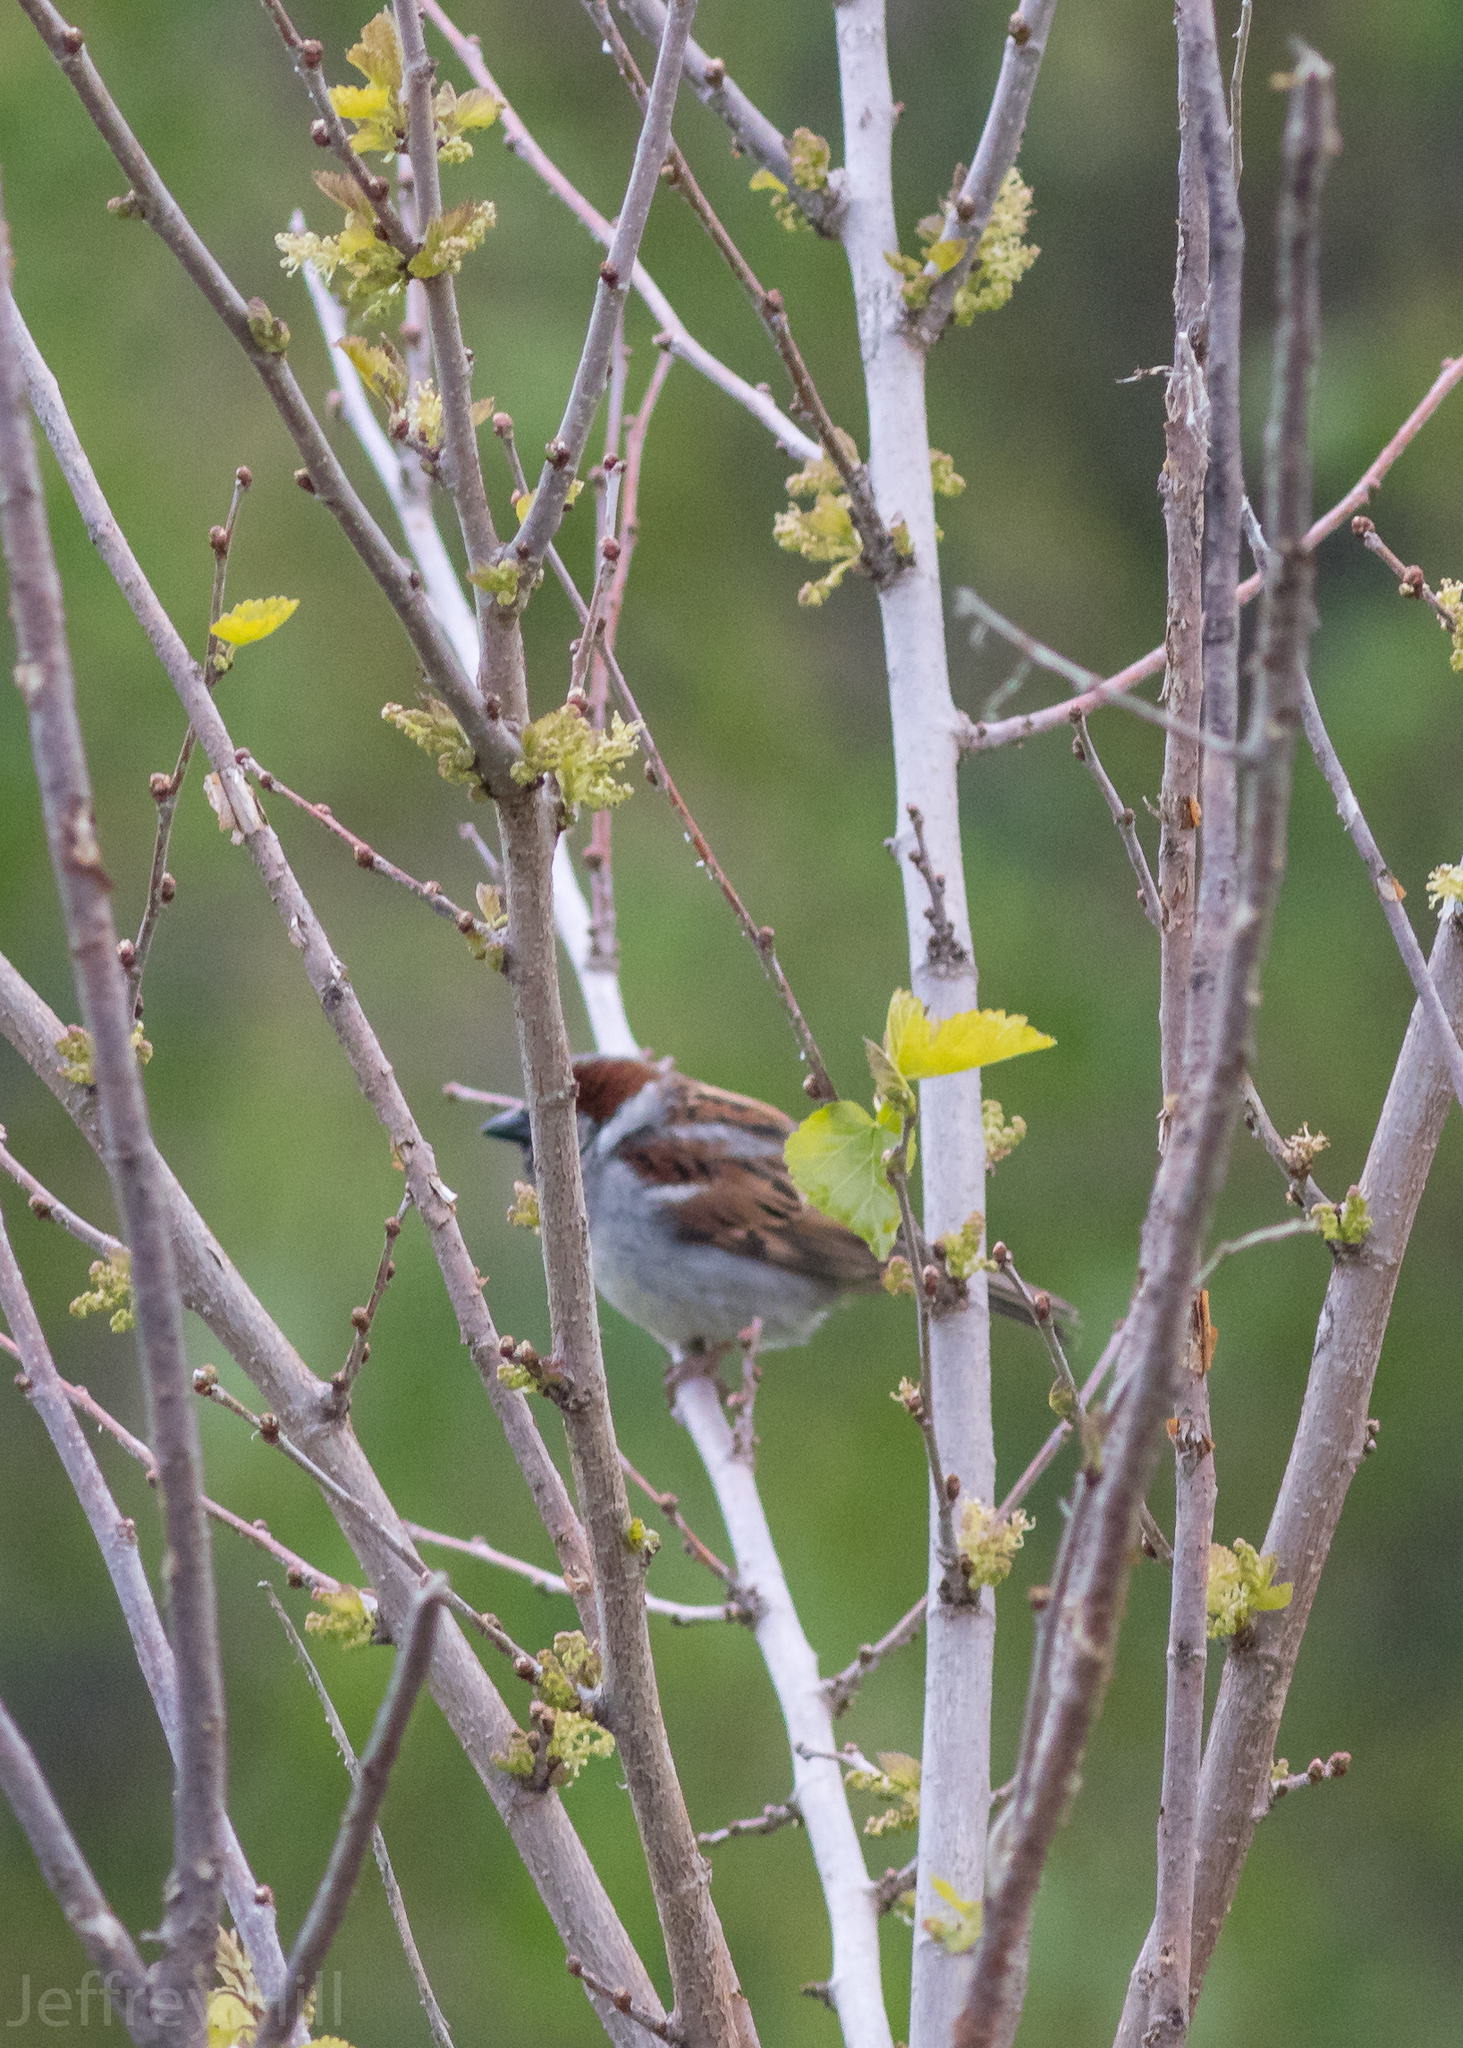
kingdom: Animalia
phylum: Chordata
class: Aves
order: Passeriformes
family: Passeridae
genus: Passer
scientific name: Passer domesticus
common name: House sparrow
